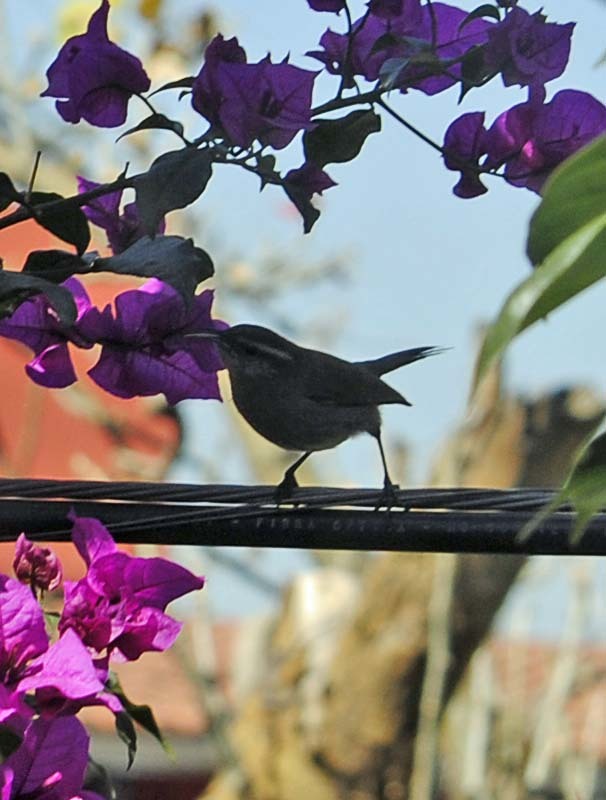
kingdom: Animalia
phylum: Chordata
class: Aves
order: Passeriformes
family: Troglodytidae
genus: Thryomanes
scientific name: Thryomanes bewickii
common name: Bewick's wren
